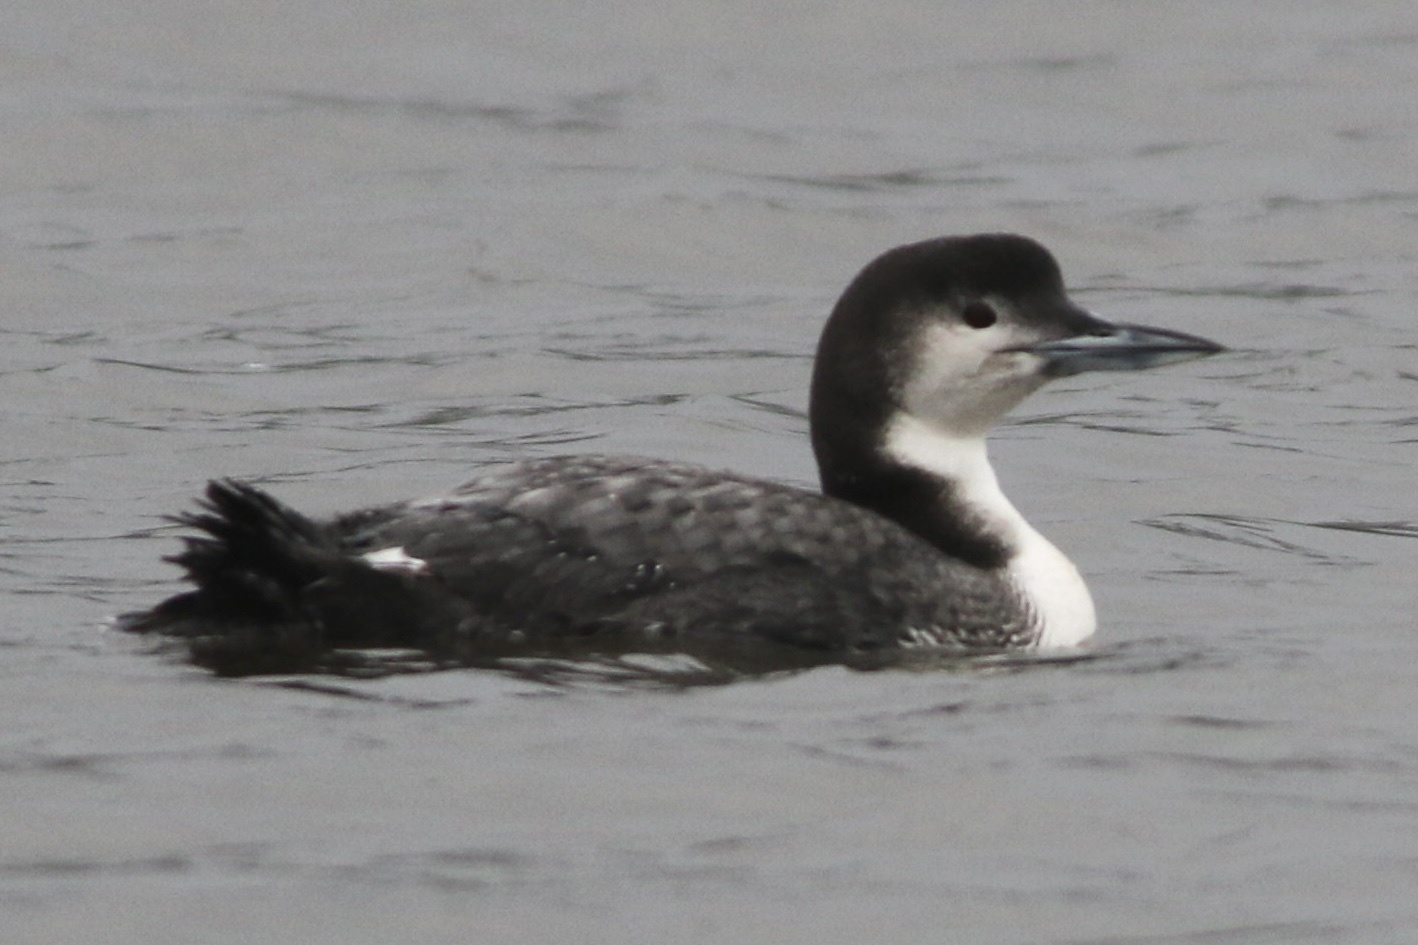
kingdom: Animalia
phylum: Chordata
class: Aves
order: Gaviiformes
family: Gaviidae
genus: Gavia
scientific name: Gavia immer
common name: Common loon
